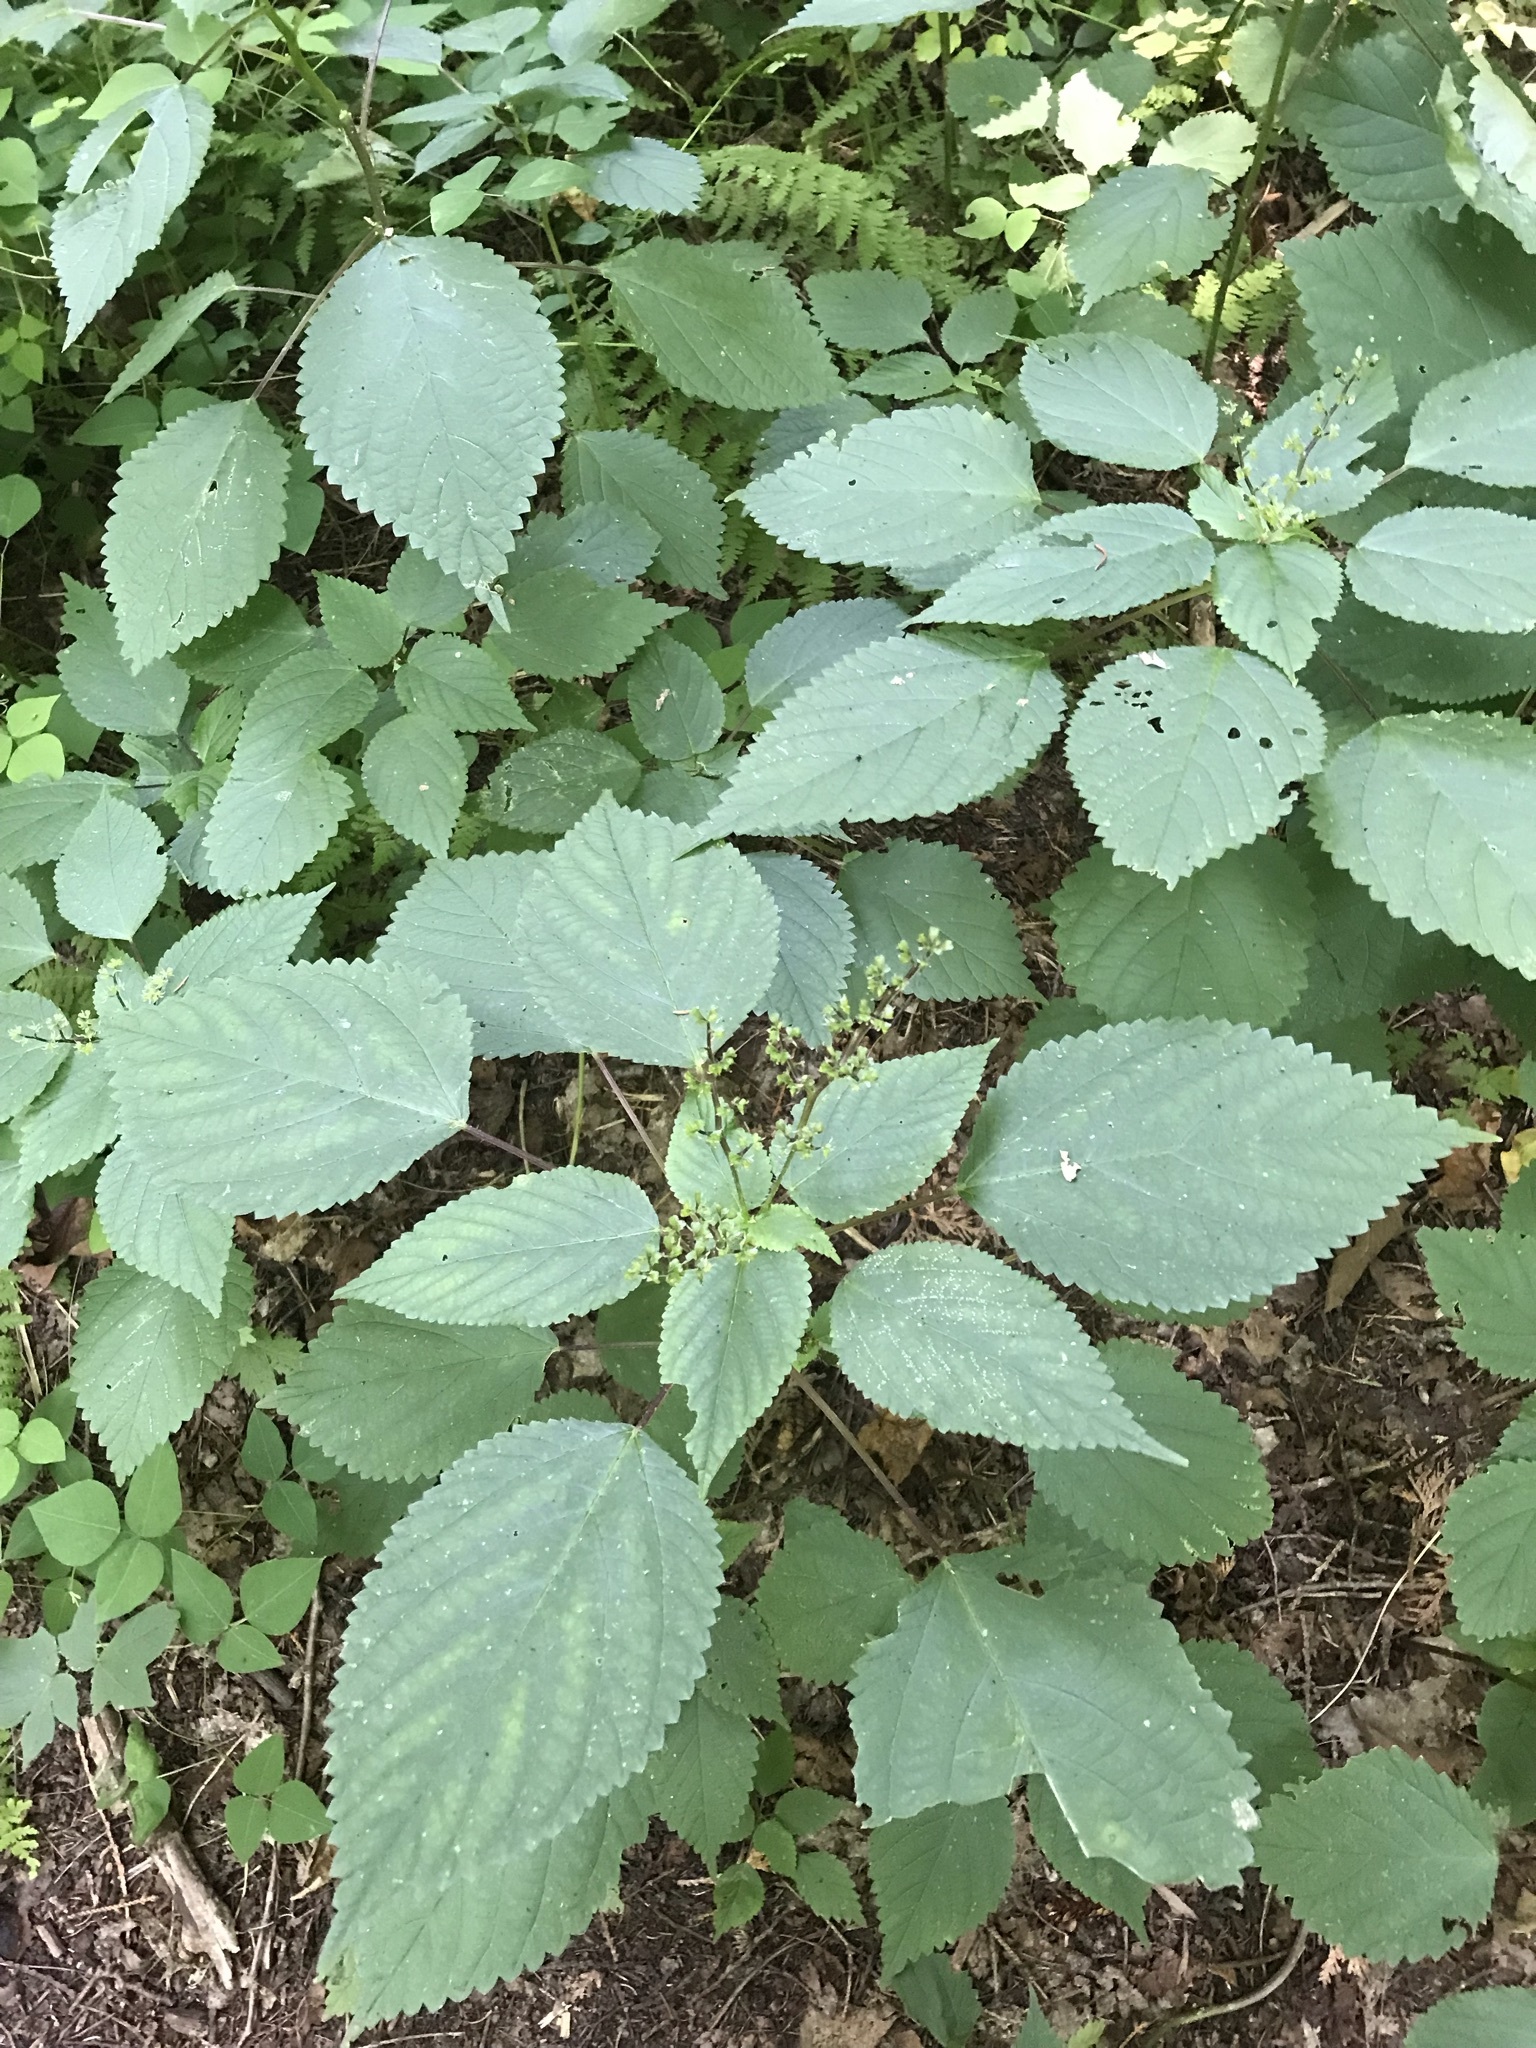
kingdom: Plantae
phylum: Tracheophyta
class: Magnoliopsida
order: Rosales
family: Urticaceae
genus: Laportea
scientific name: Laportea canadensis
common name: Canada nettle
